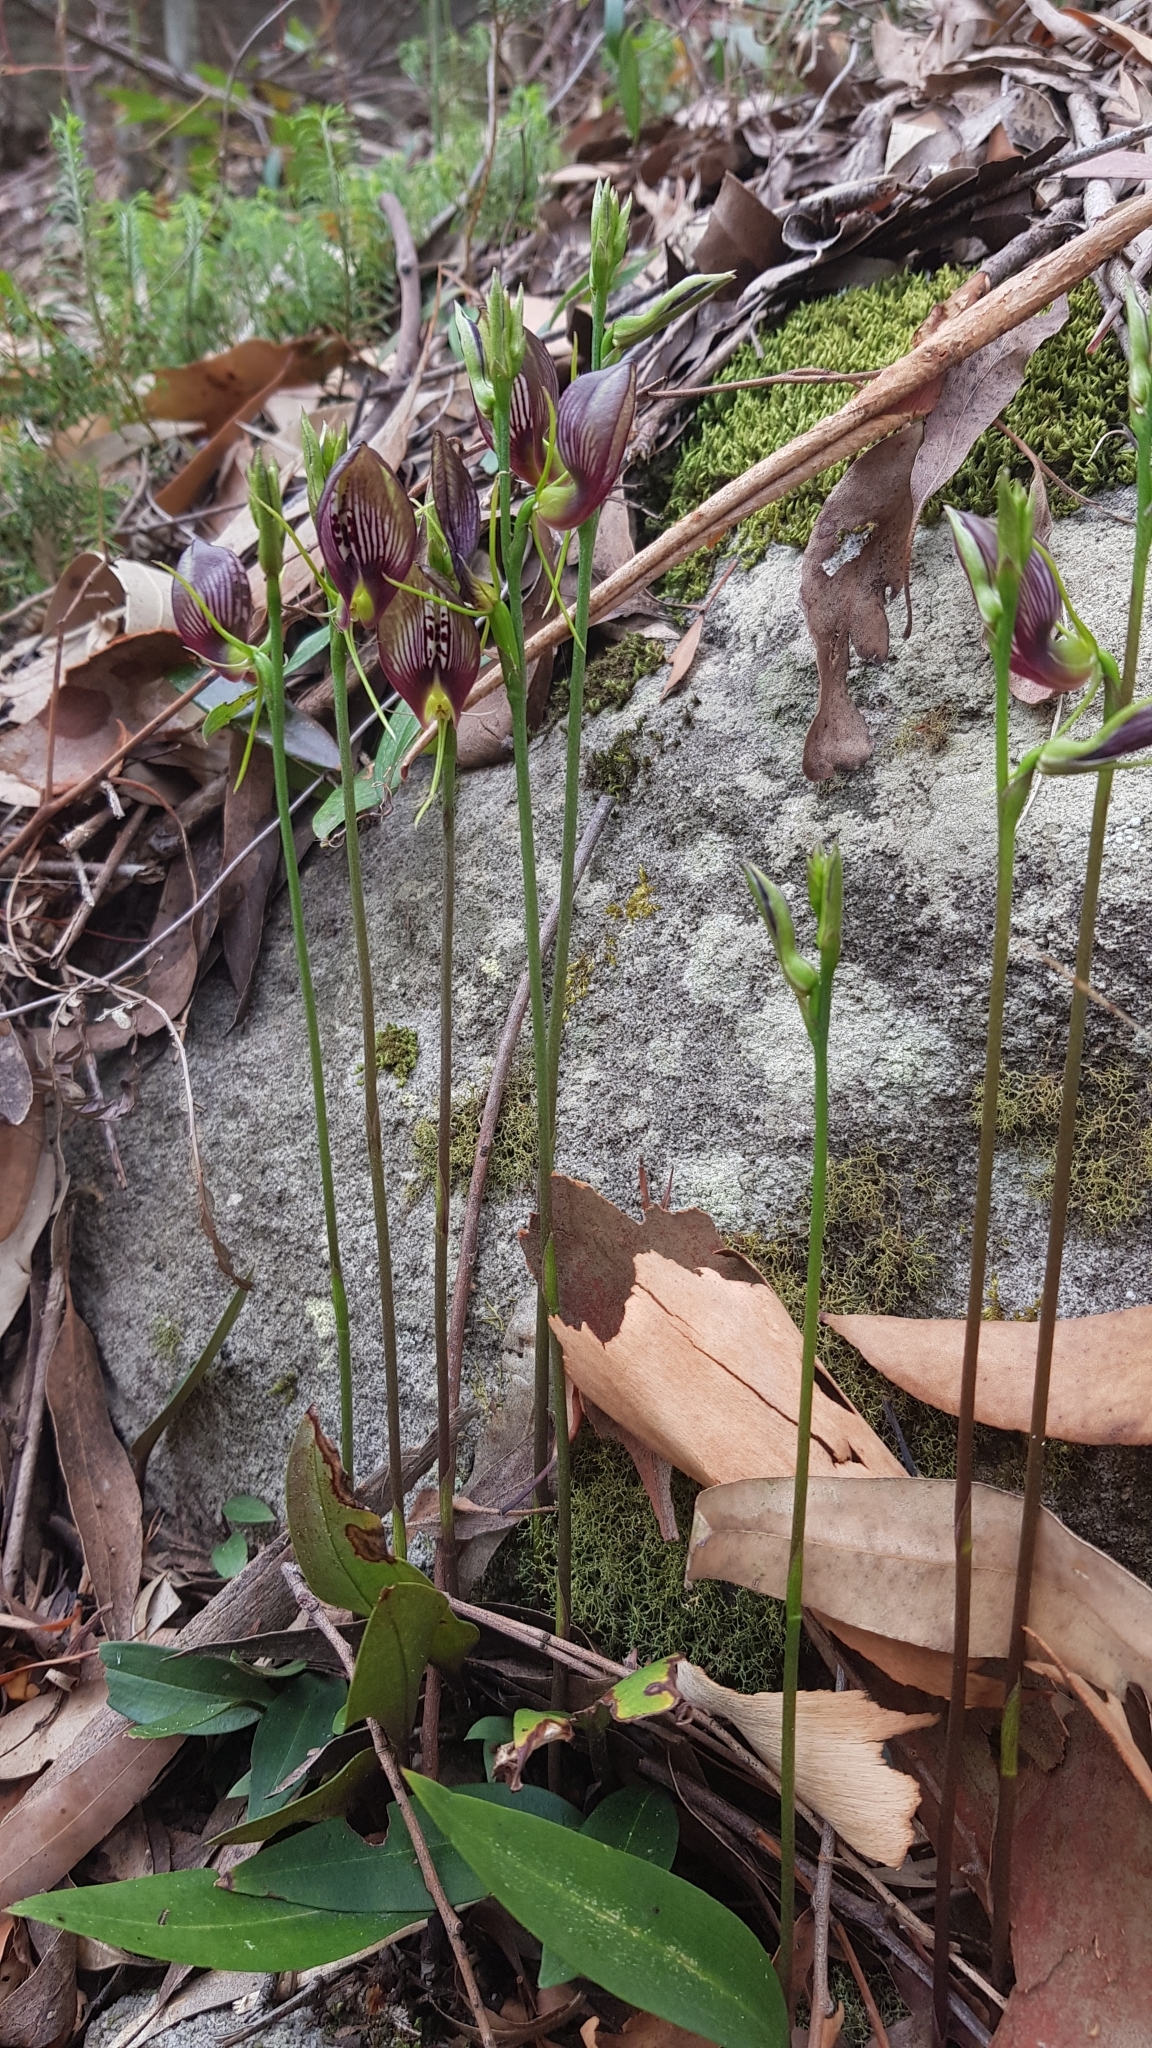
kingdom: Plantae
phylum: Tracheophyta
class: Liliopsida
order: Asparagales
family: Orchidaceae
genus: Cryptostylis
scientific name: Cryptostylis erecta
